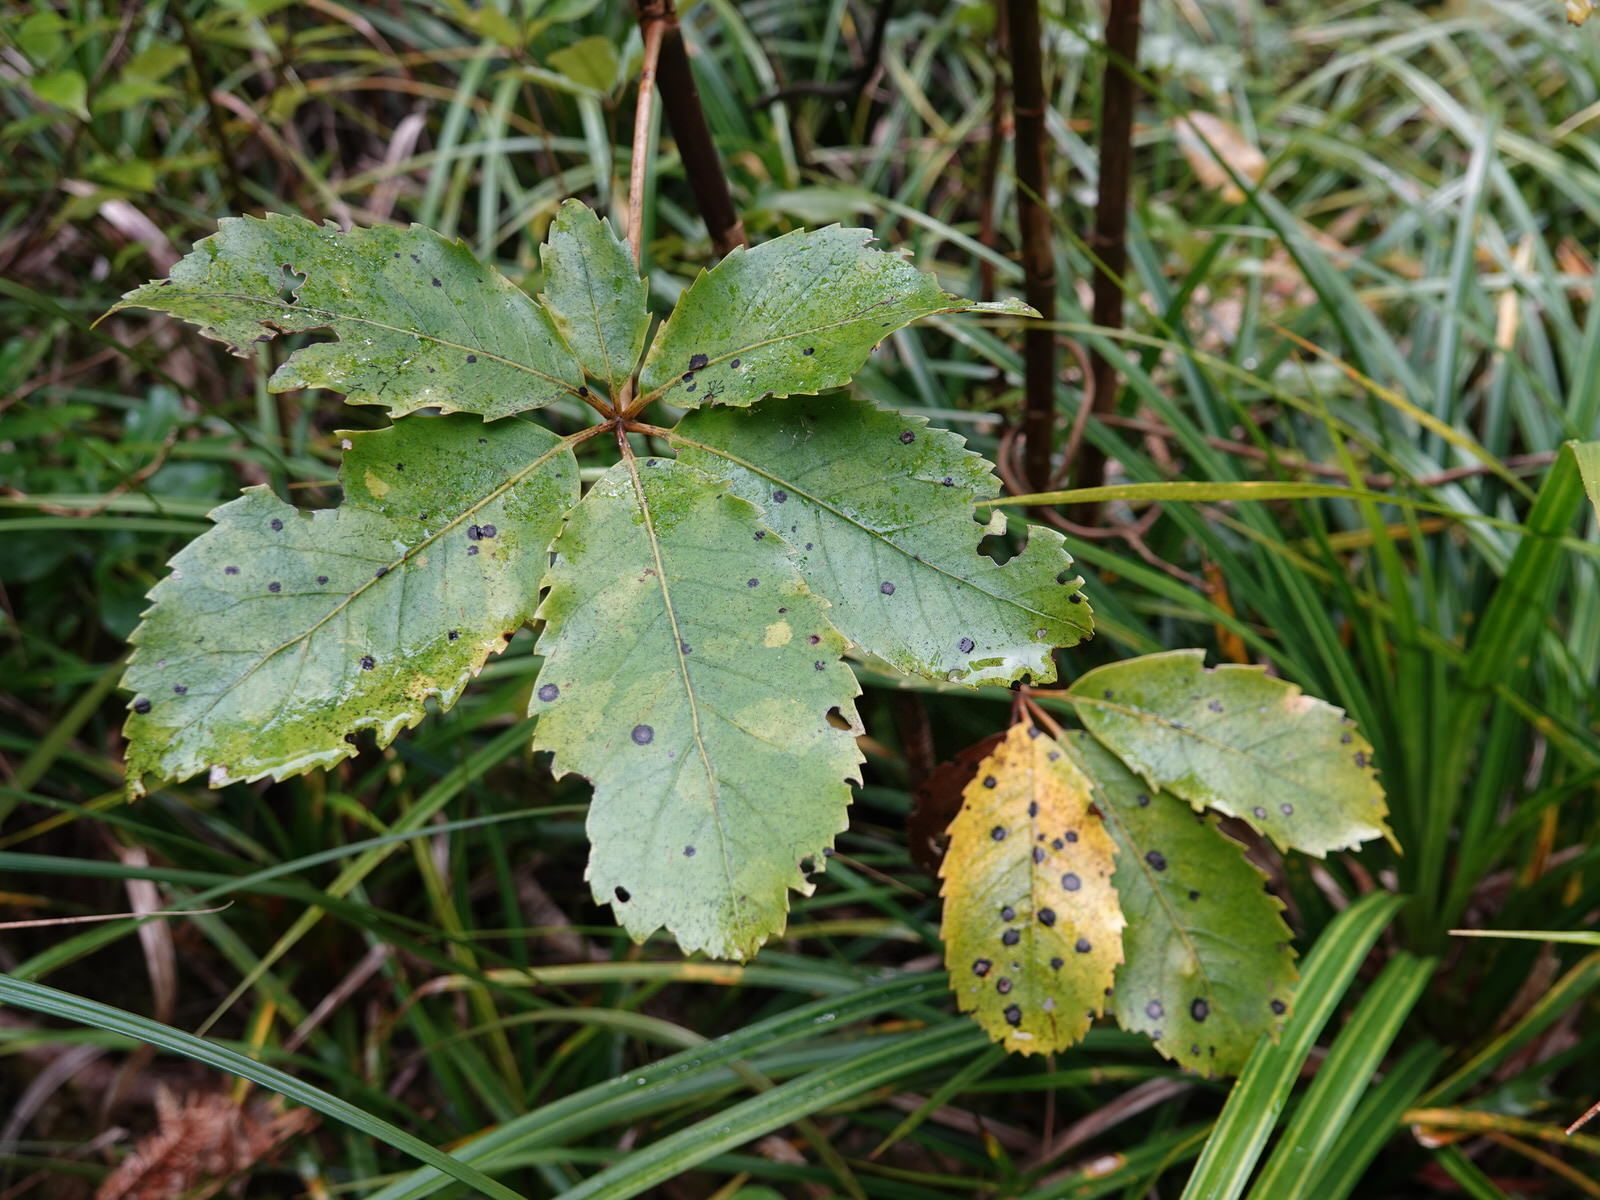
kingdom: Fungi
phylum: Ascomycota
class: Dothideomycetes
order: Asterinales
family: Asterinaceae
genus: Placosoma
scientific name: Placosoma nothopanacis
